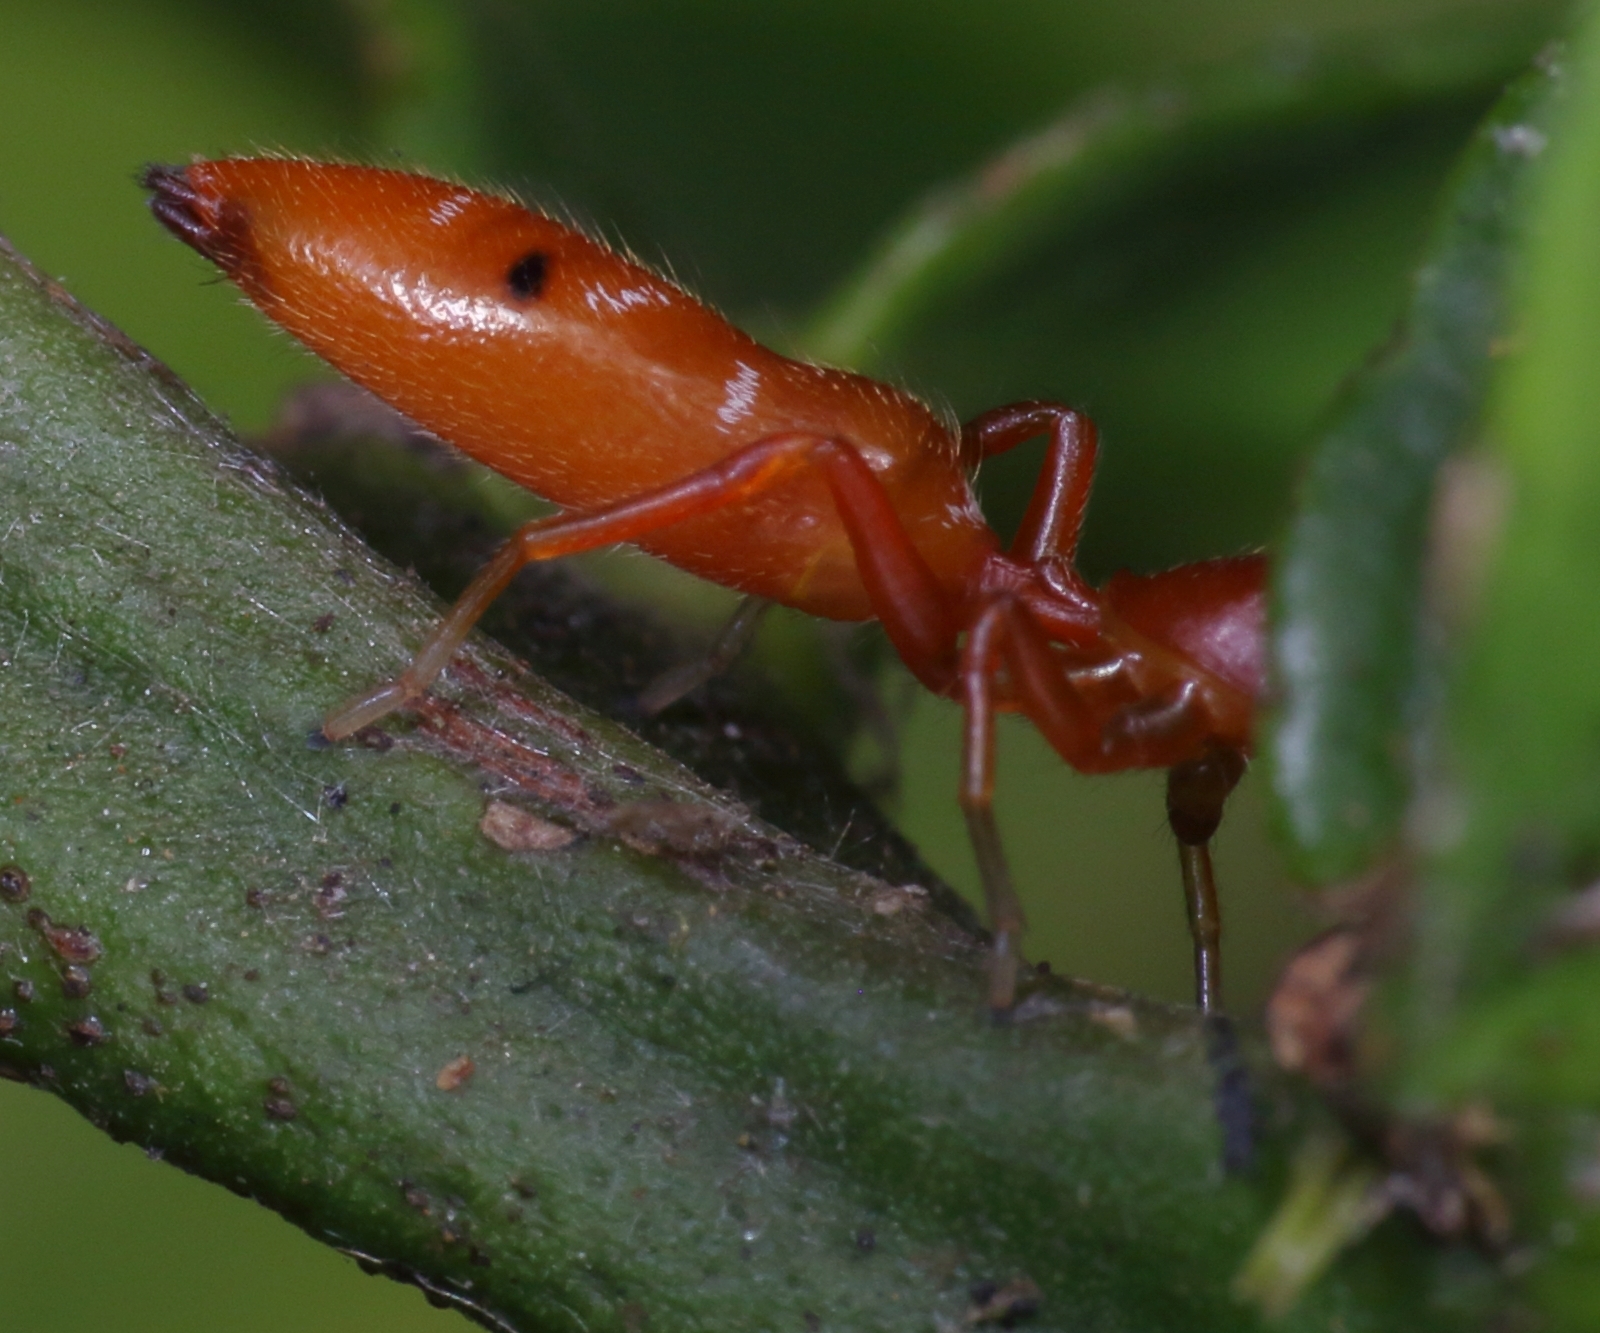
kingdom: Animalia
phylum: Arthropoda
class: Arachnida
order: Araneae
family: Salticidae
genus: Myrmarachne
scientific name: Myrmarachne ichneumon
